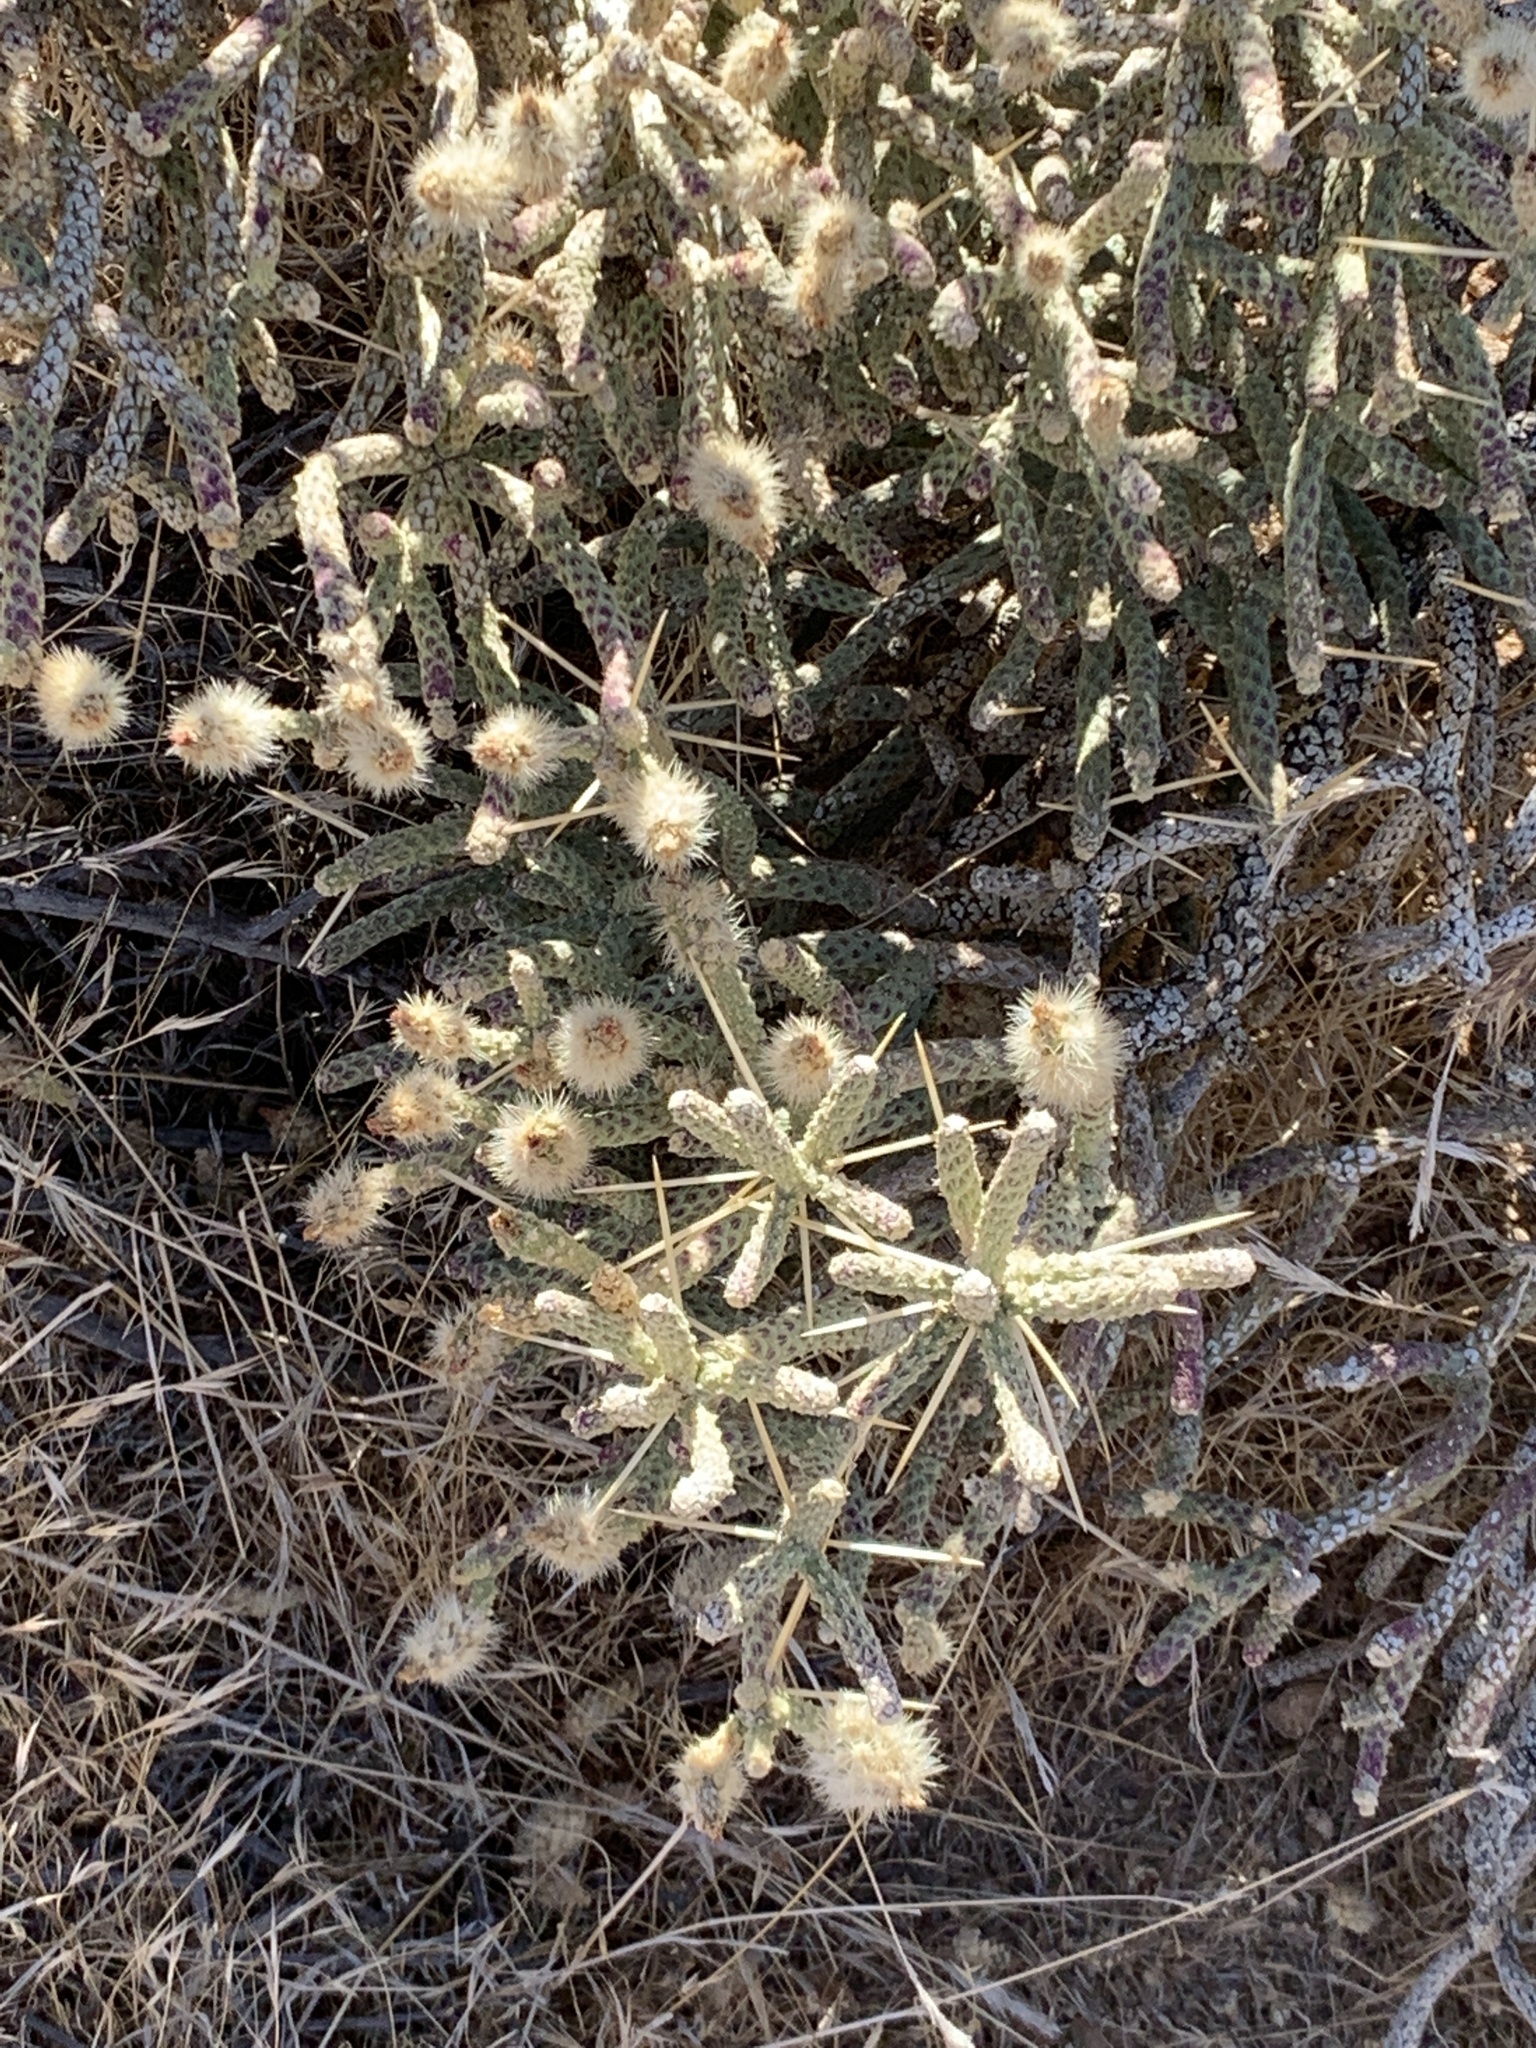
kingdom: Plantae
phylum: Tracheophyta
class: Magnoliopsida
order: Caryophyllales
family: Cactaceae
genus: Cylindropuntia
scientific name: Cylindropuntia ramosissima
